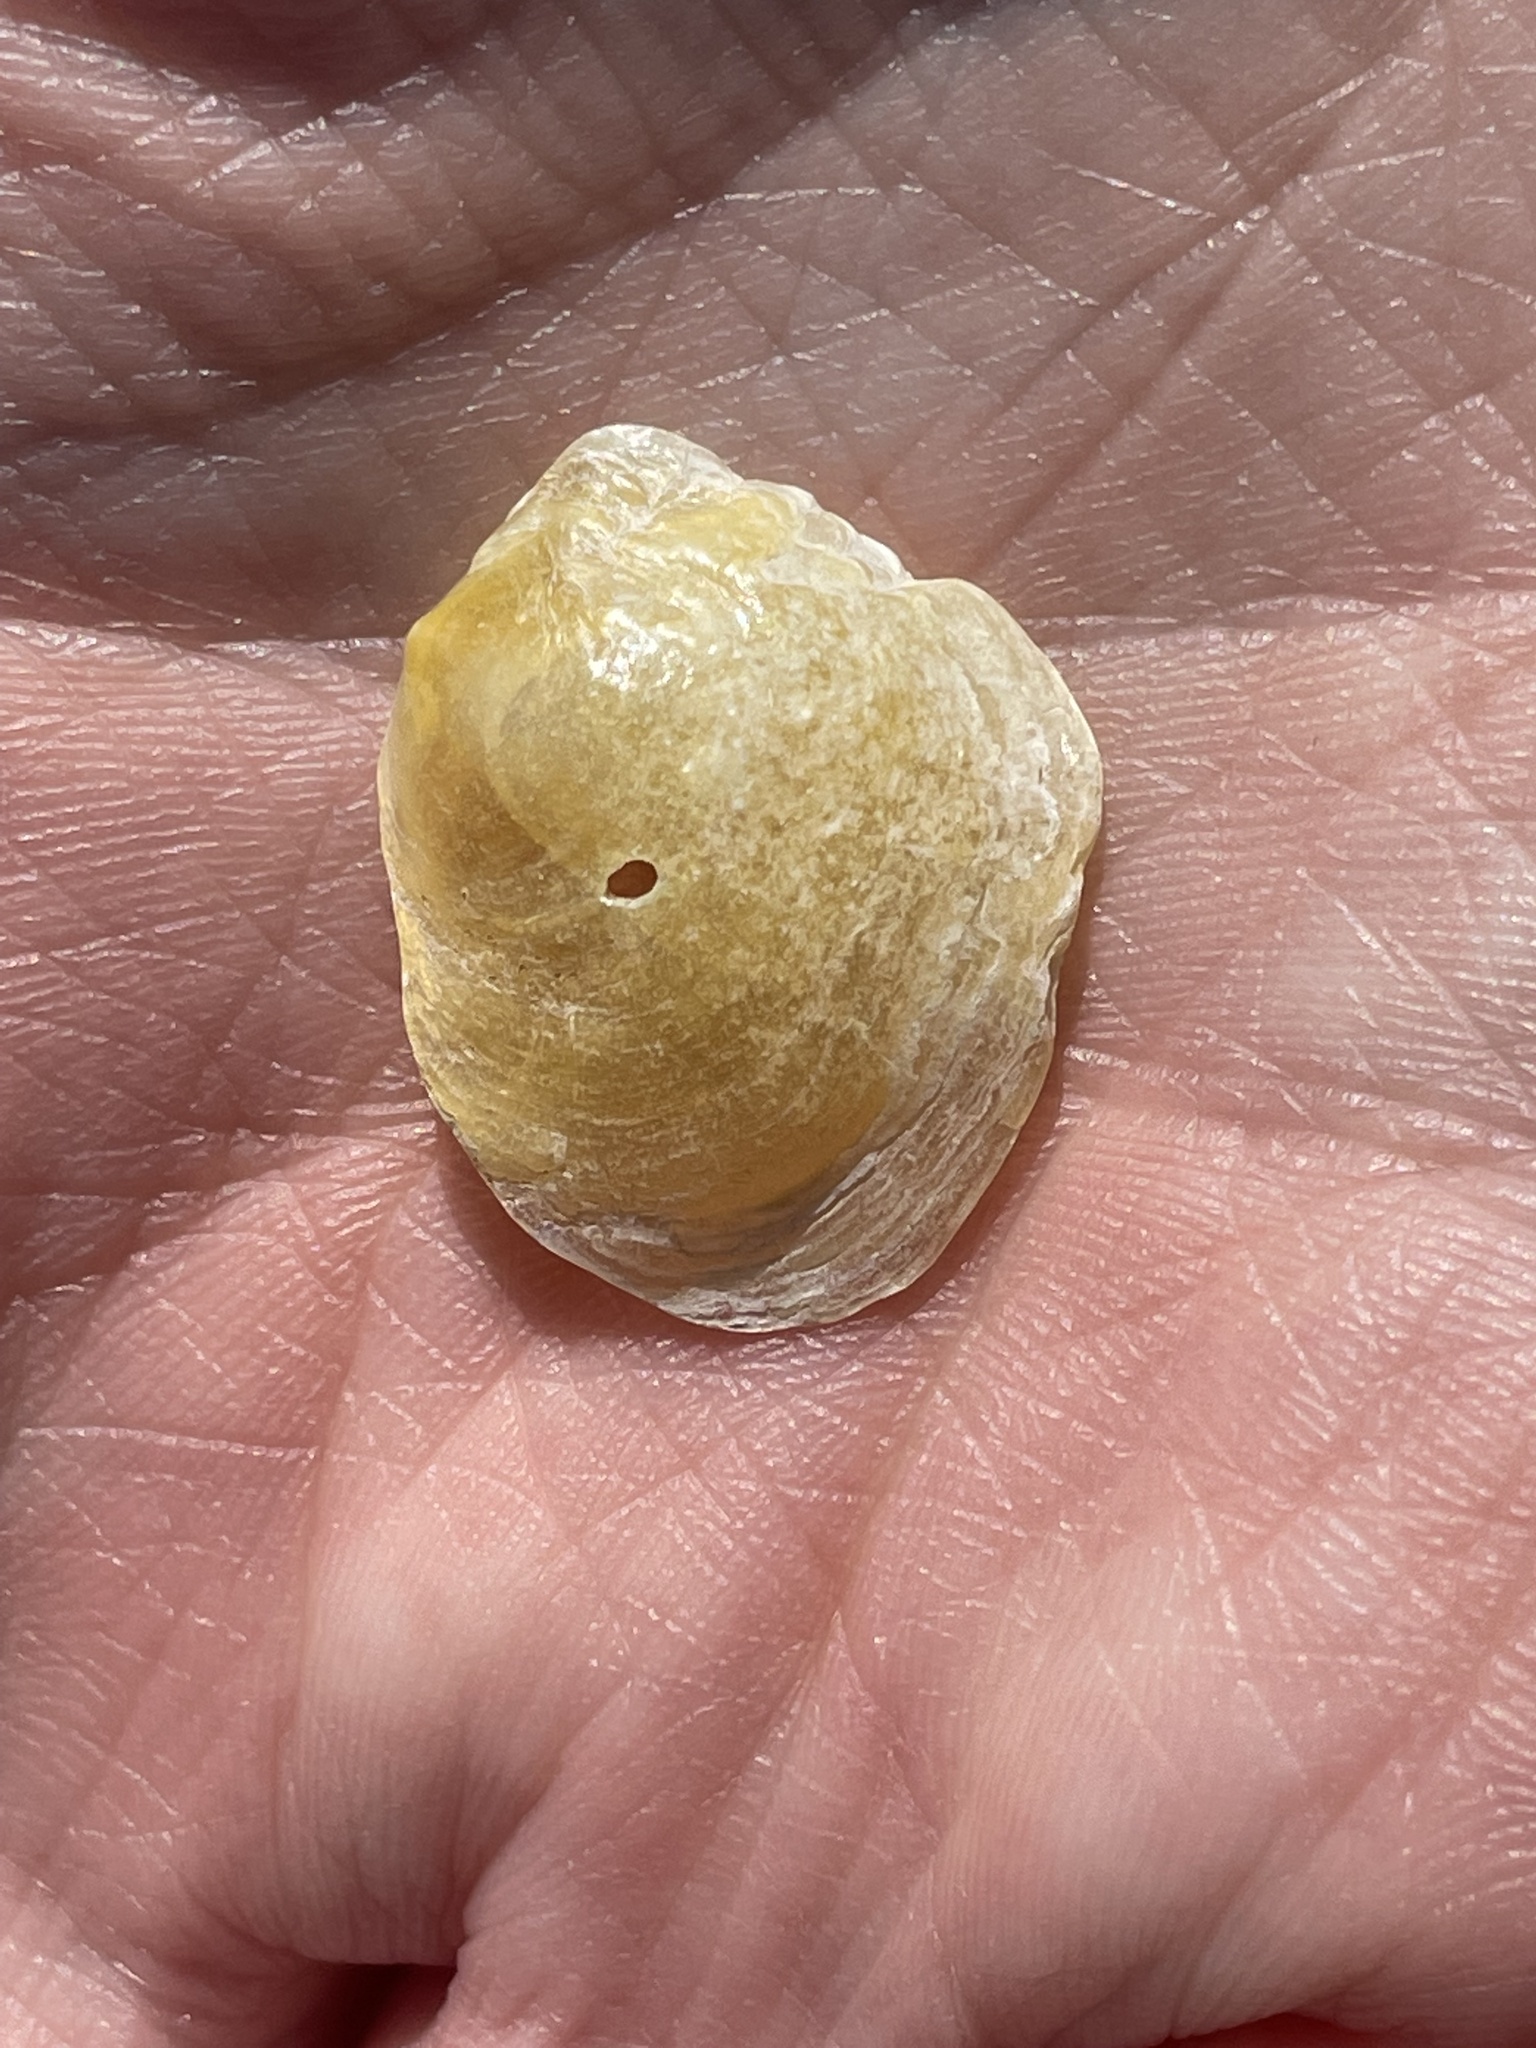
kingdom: Animalia
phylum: Mollusca
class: Bivalvia
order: Pectinida
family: Anomiidae
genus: Anomia
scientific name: Anomia simplex
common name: Common jingle shell
